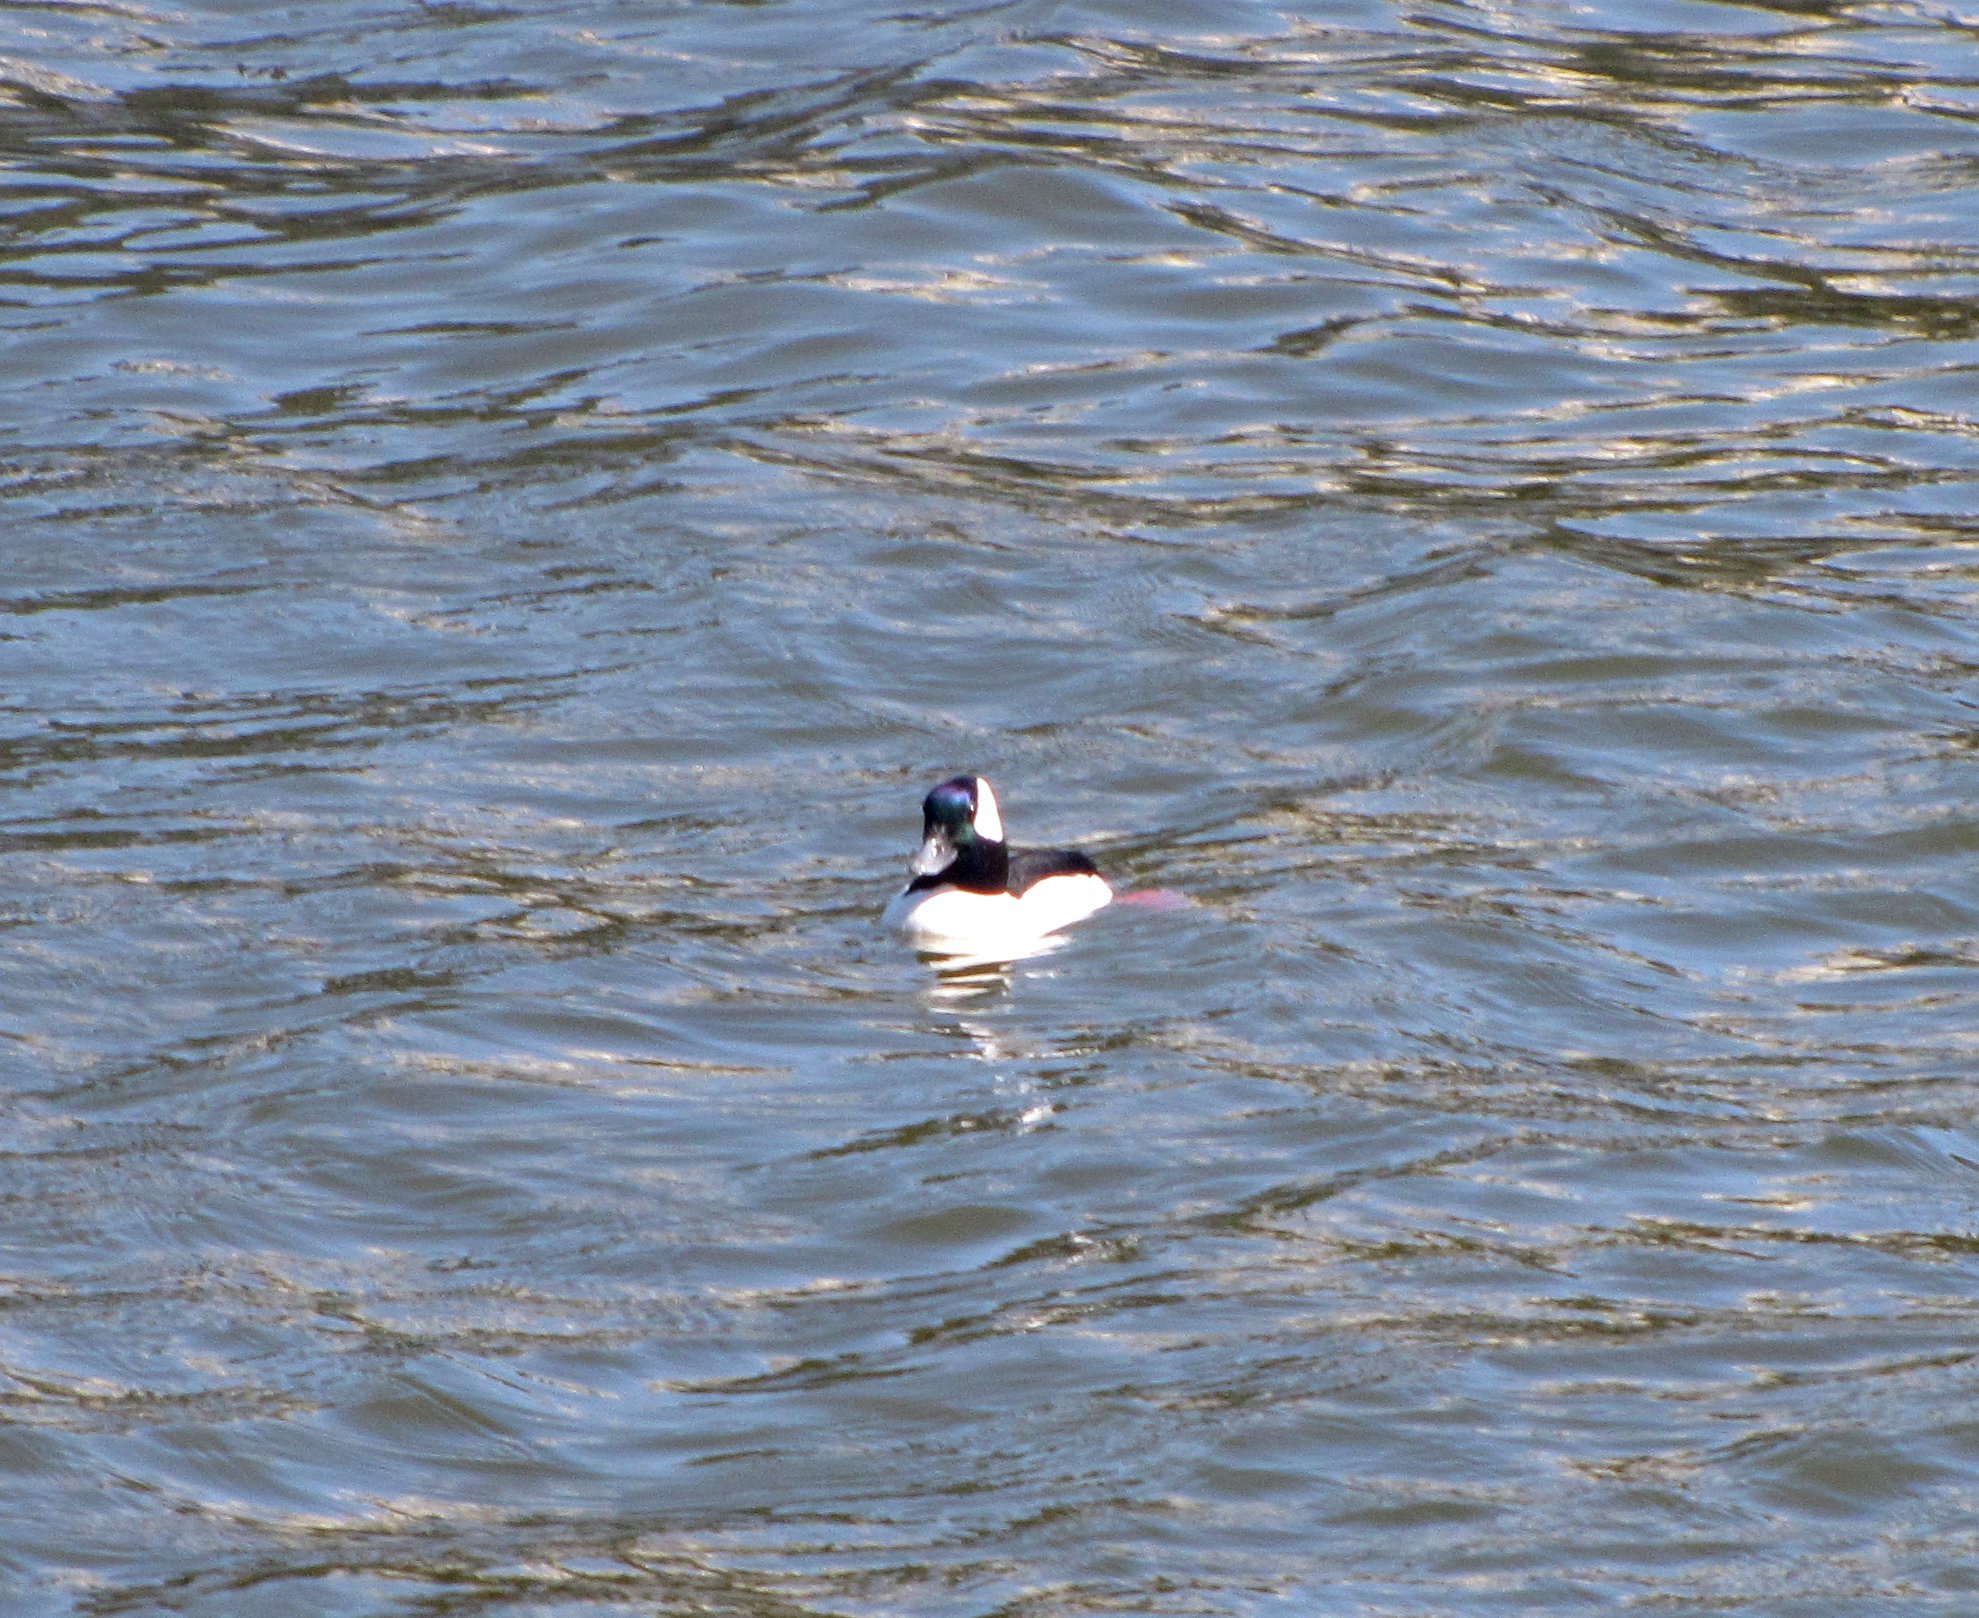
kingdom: Animalia
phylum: Chordata
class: Aves
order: Anseriformes
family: Anatidae
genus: Bucephala
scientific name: Bucephala albeola
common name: Bufflehead
